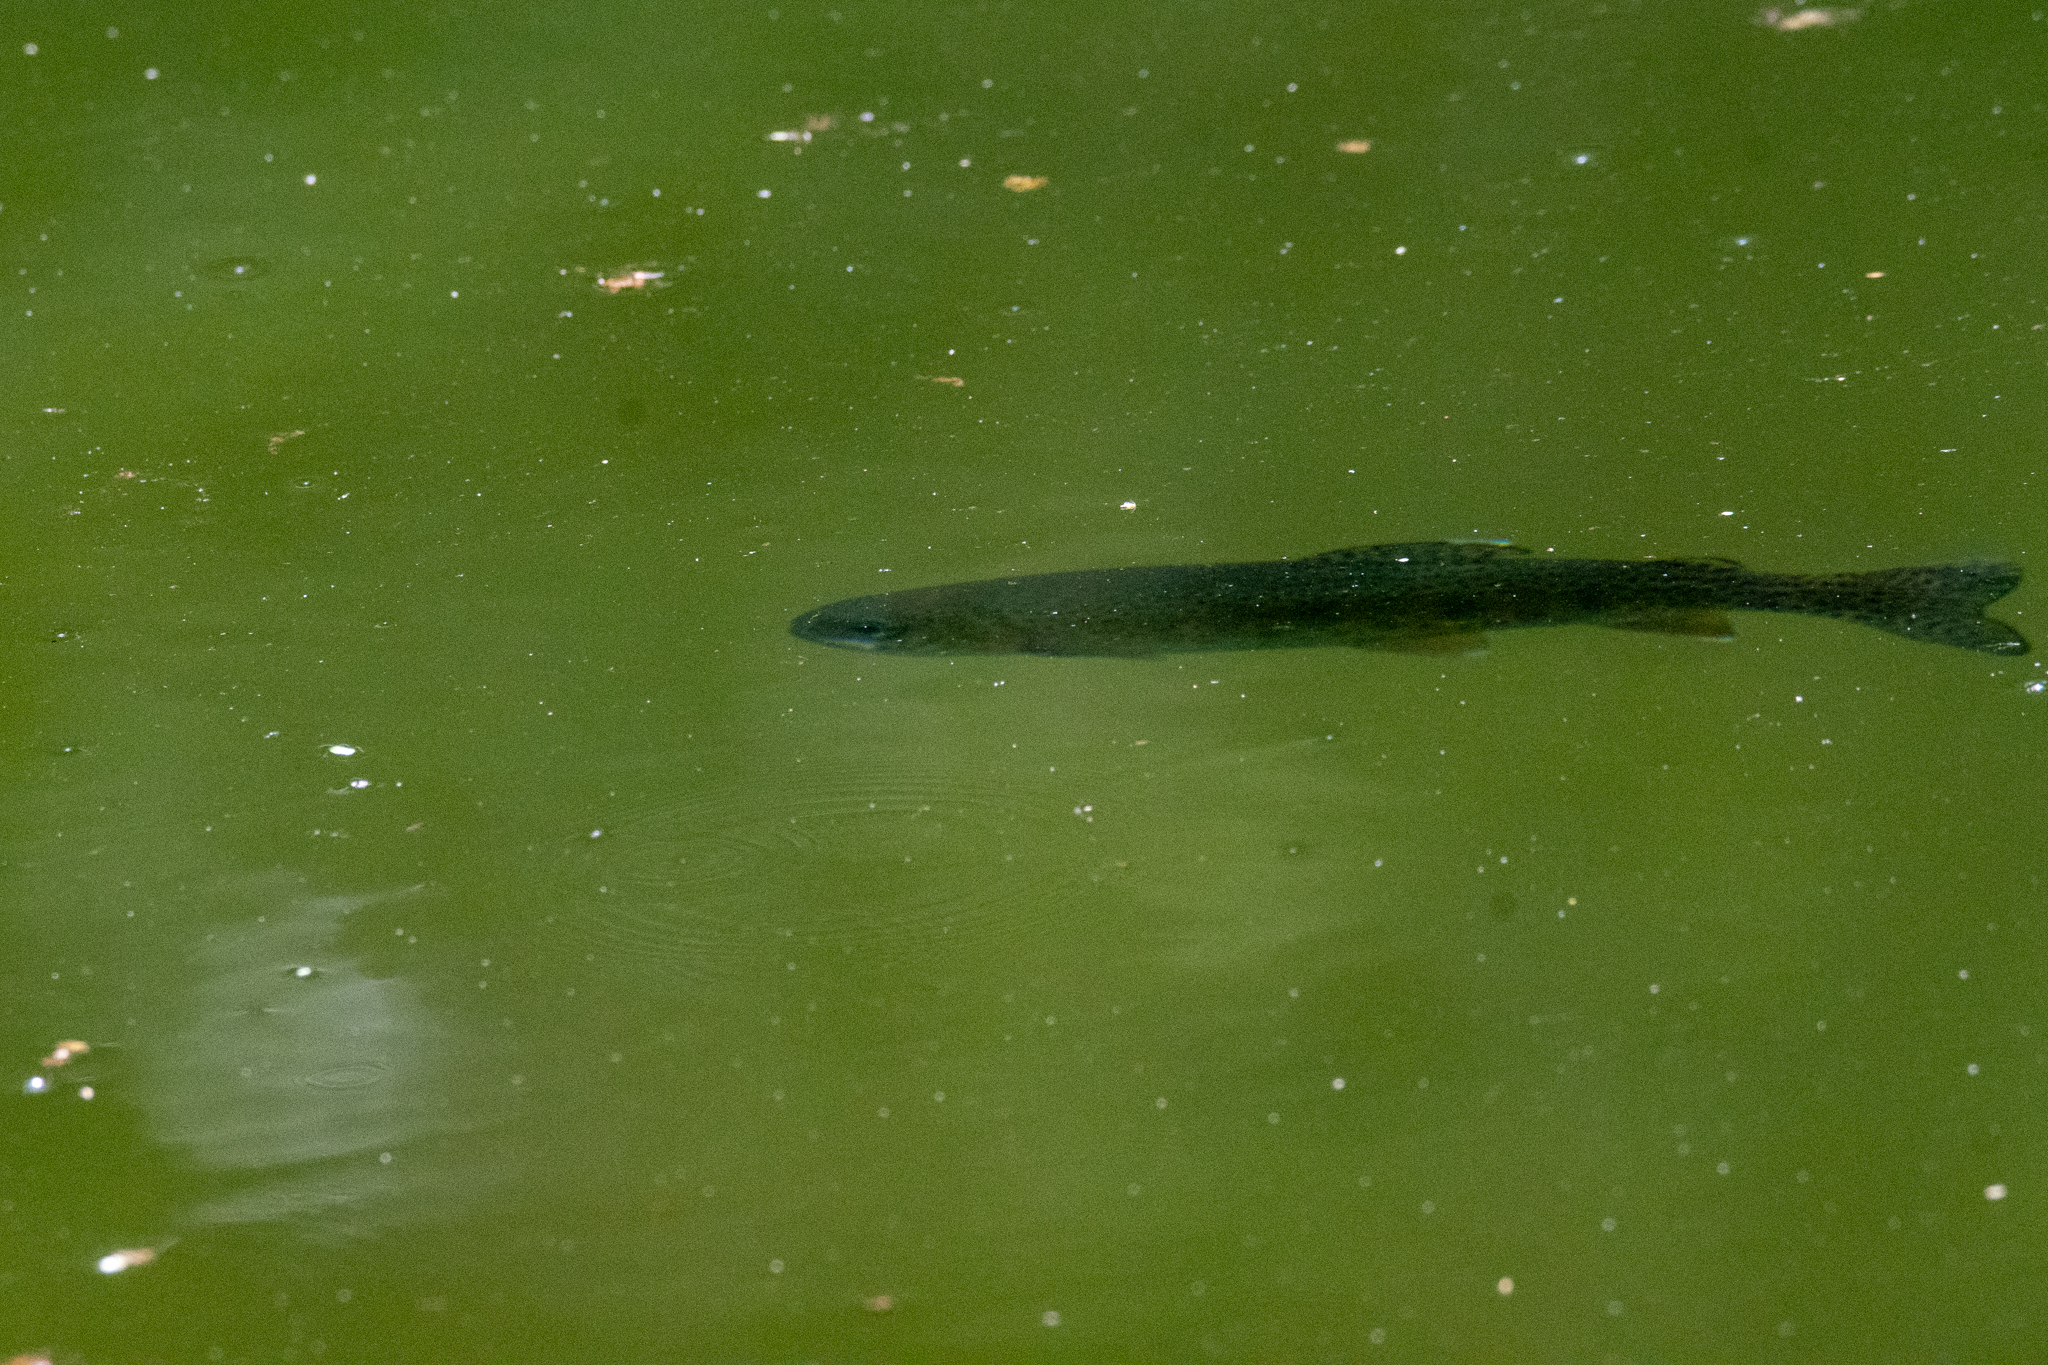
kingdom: Animalia
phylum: Chordata
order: Salmoniformes
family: Salmonidae
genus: Oncorhynchus
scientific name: Oncorhynchus mykiss
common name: Rainbow trout
